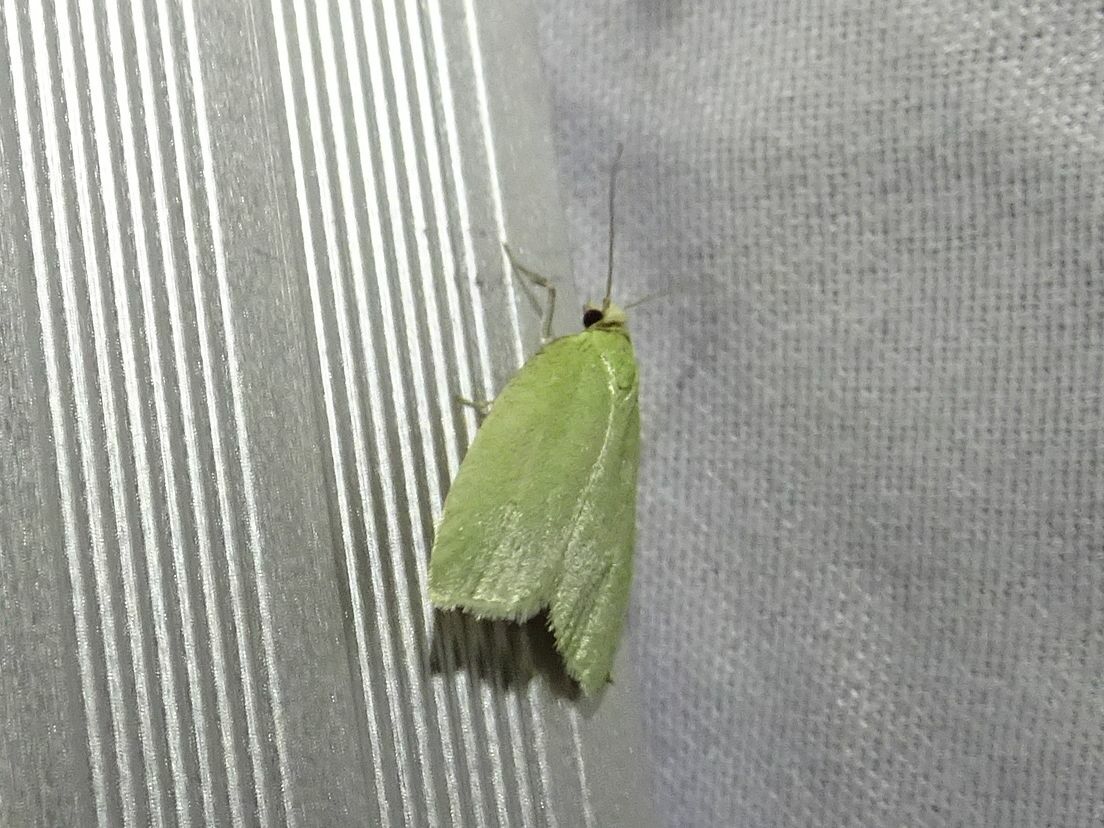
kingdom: Animalia
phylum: Arthropoda
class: Insecta
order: Lepidoptera
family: Tortricidae
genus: Tortrix
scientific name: Tortrix viridana
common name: Green oak tortrix
